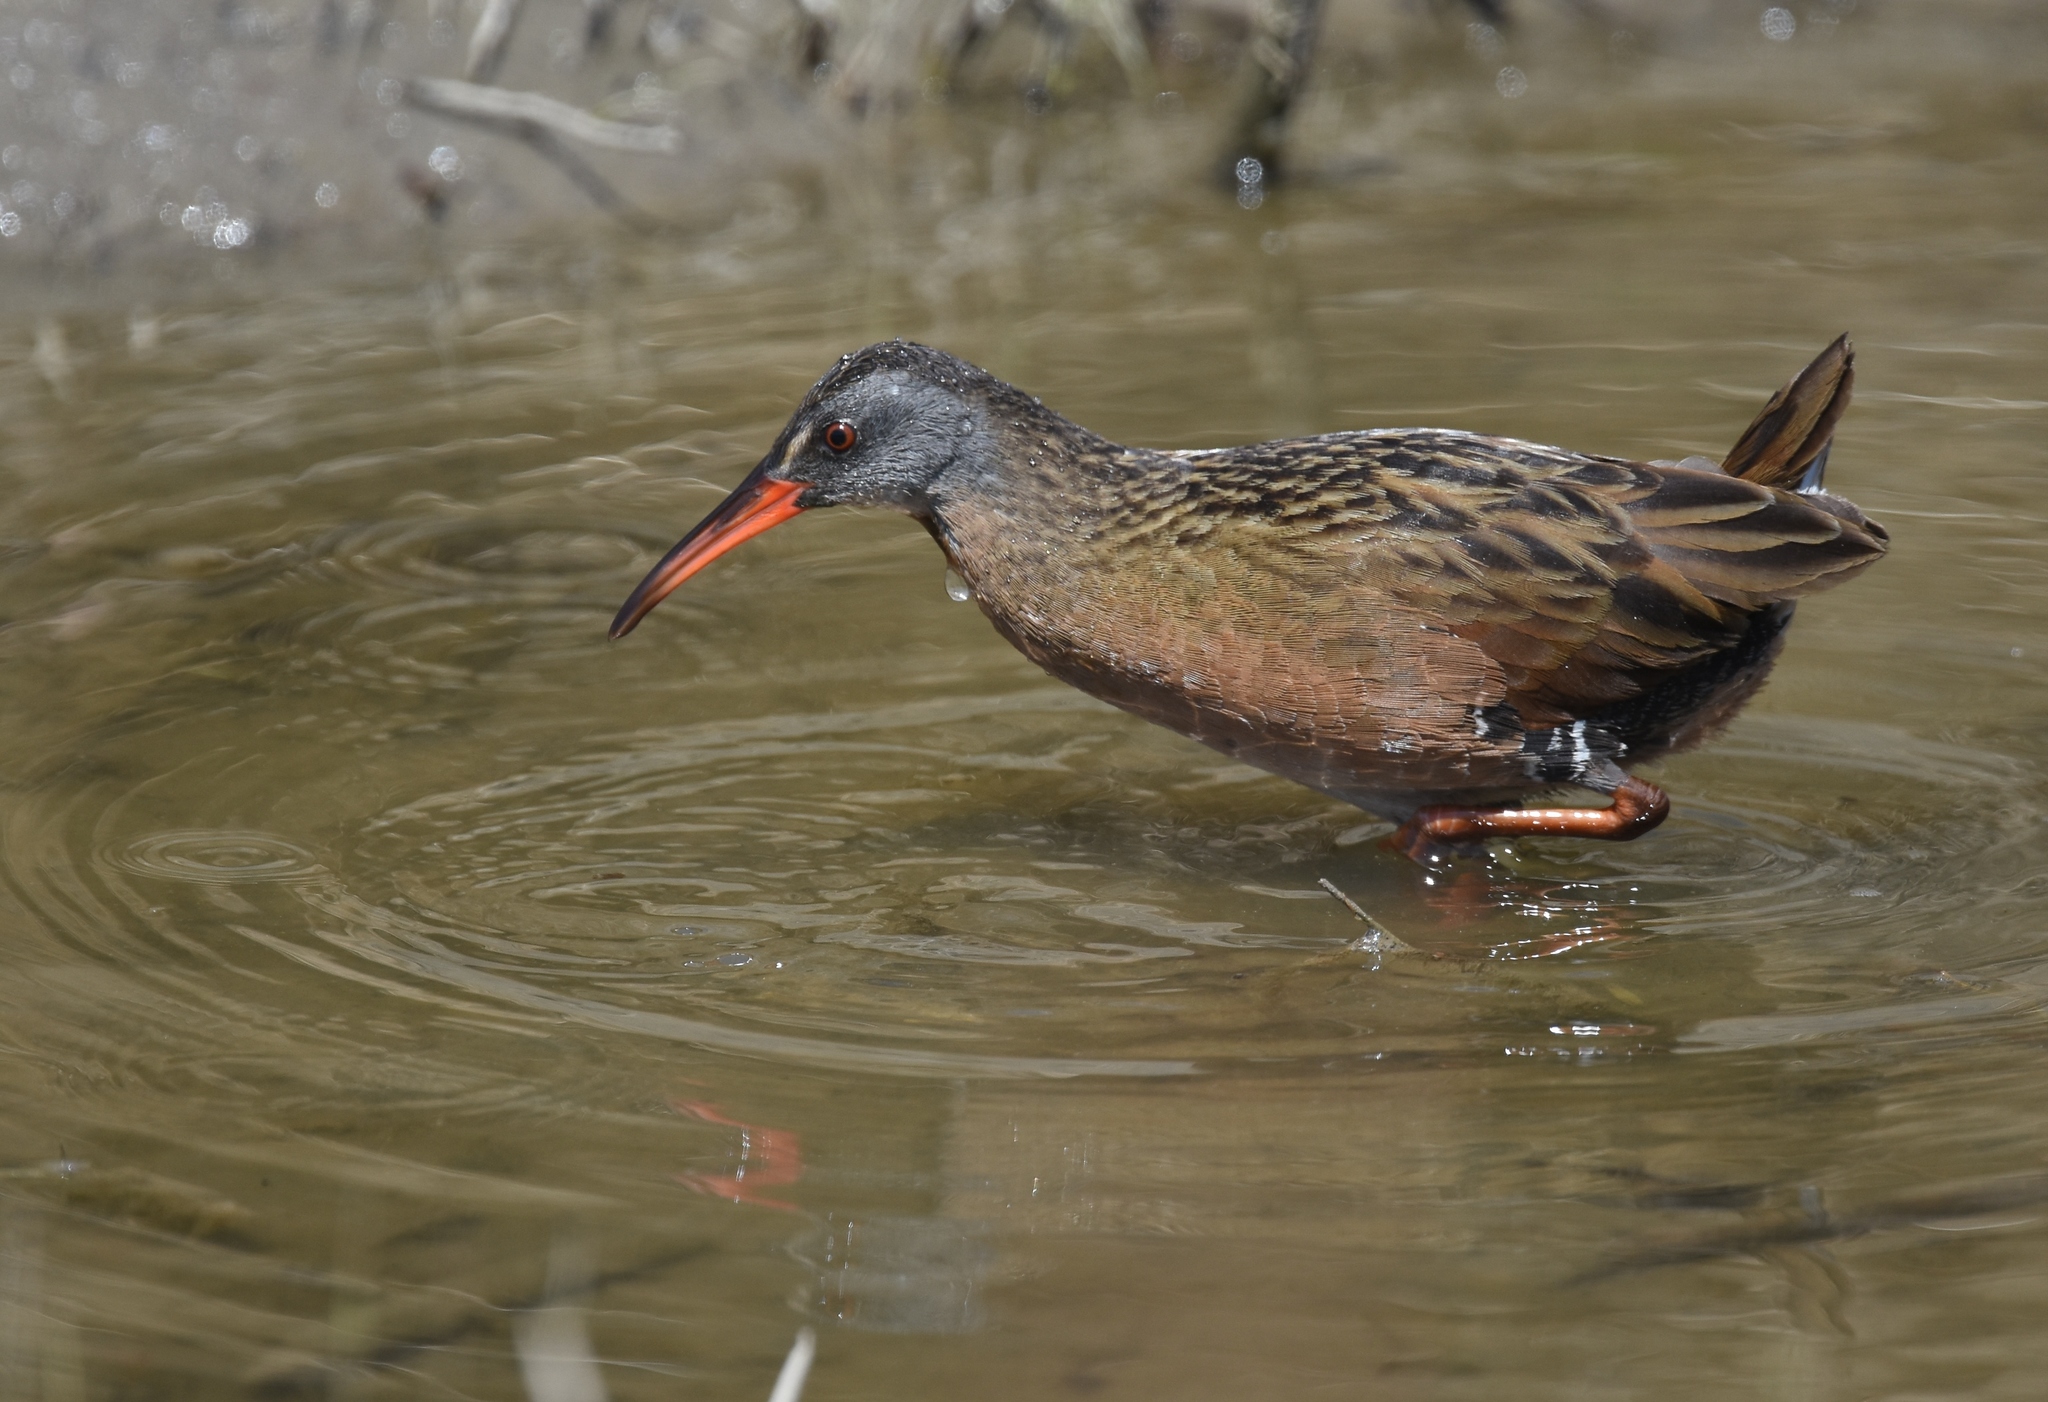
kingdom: Animalia
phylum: Chordata
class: Aves
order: Gruiformes
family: Rallidae
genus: Rallus
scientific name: Rallus limicola
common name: Virginia rail
